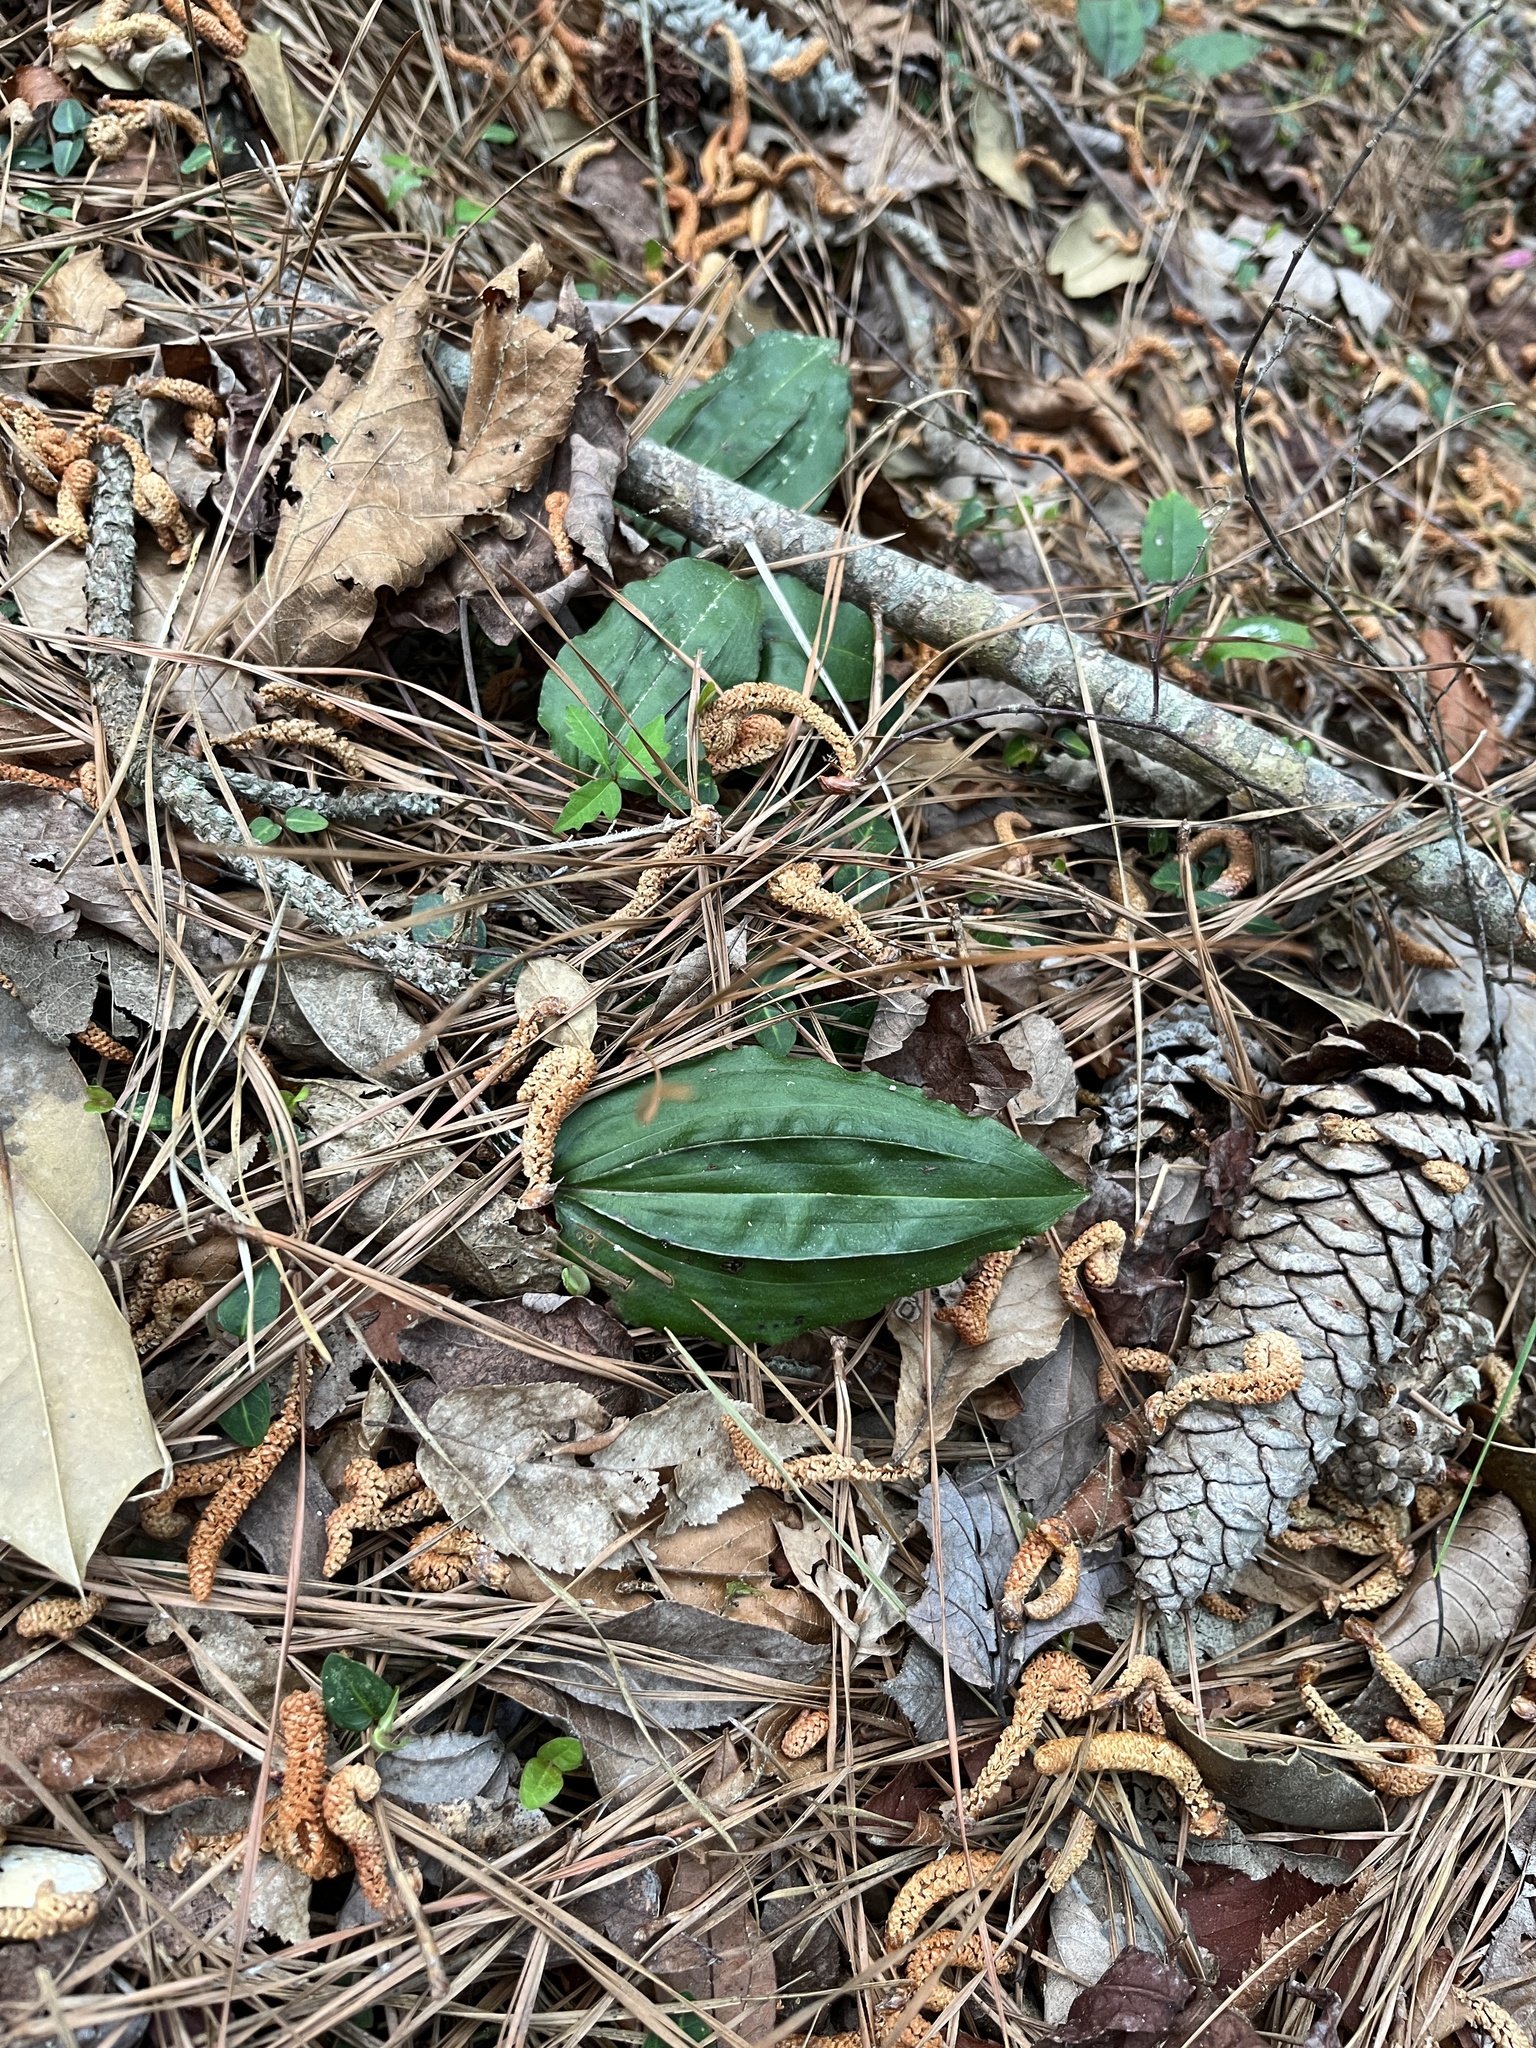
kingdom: Plantae
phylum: Tracheophyta
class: Liliopsida
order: Asparagales
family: Orchidaceae
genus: Tipularia
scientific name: Tipularia discolor
